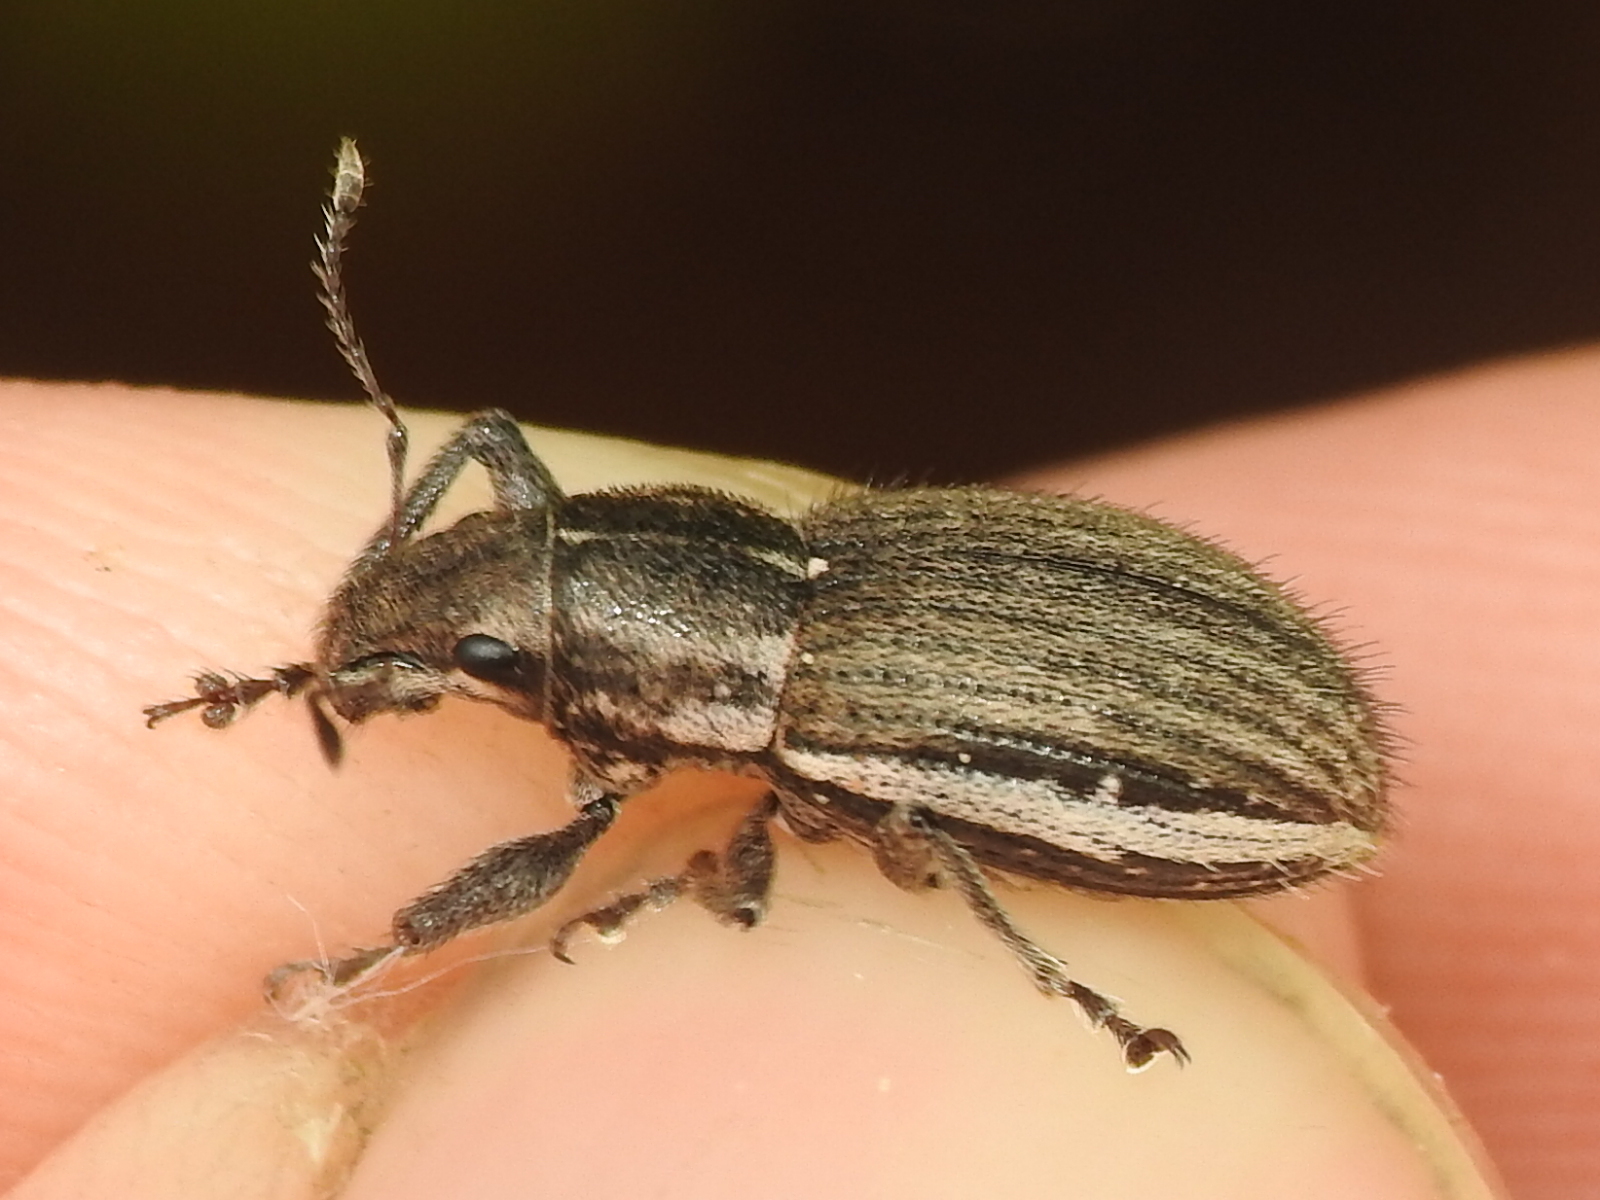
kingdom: Animalia
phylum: Arthropoda
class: Insecta
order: Coleoptera
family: Curculionidae
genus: Naupactus
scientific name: Naupactus leucoloma
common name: Whitefringed beetle
